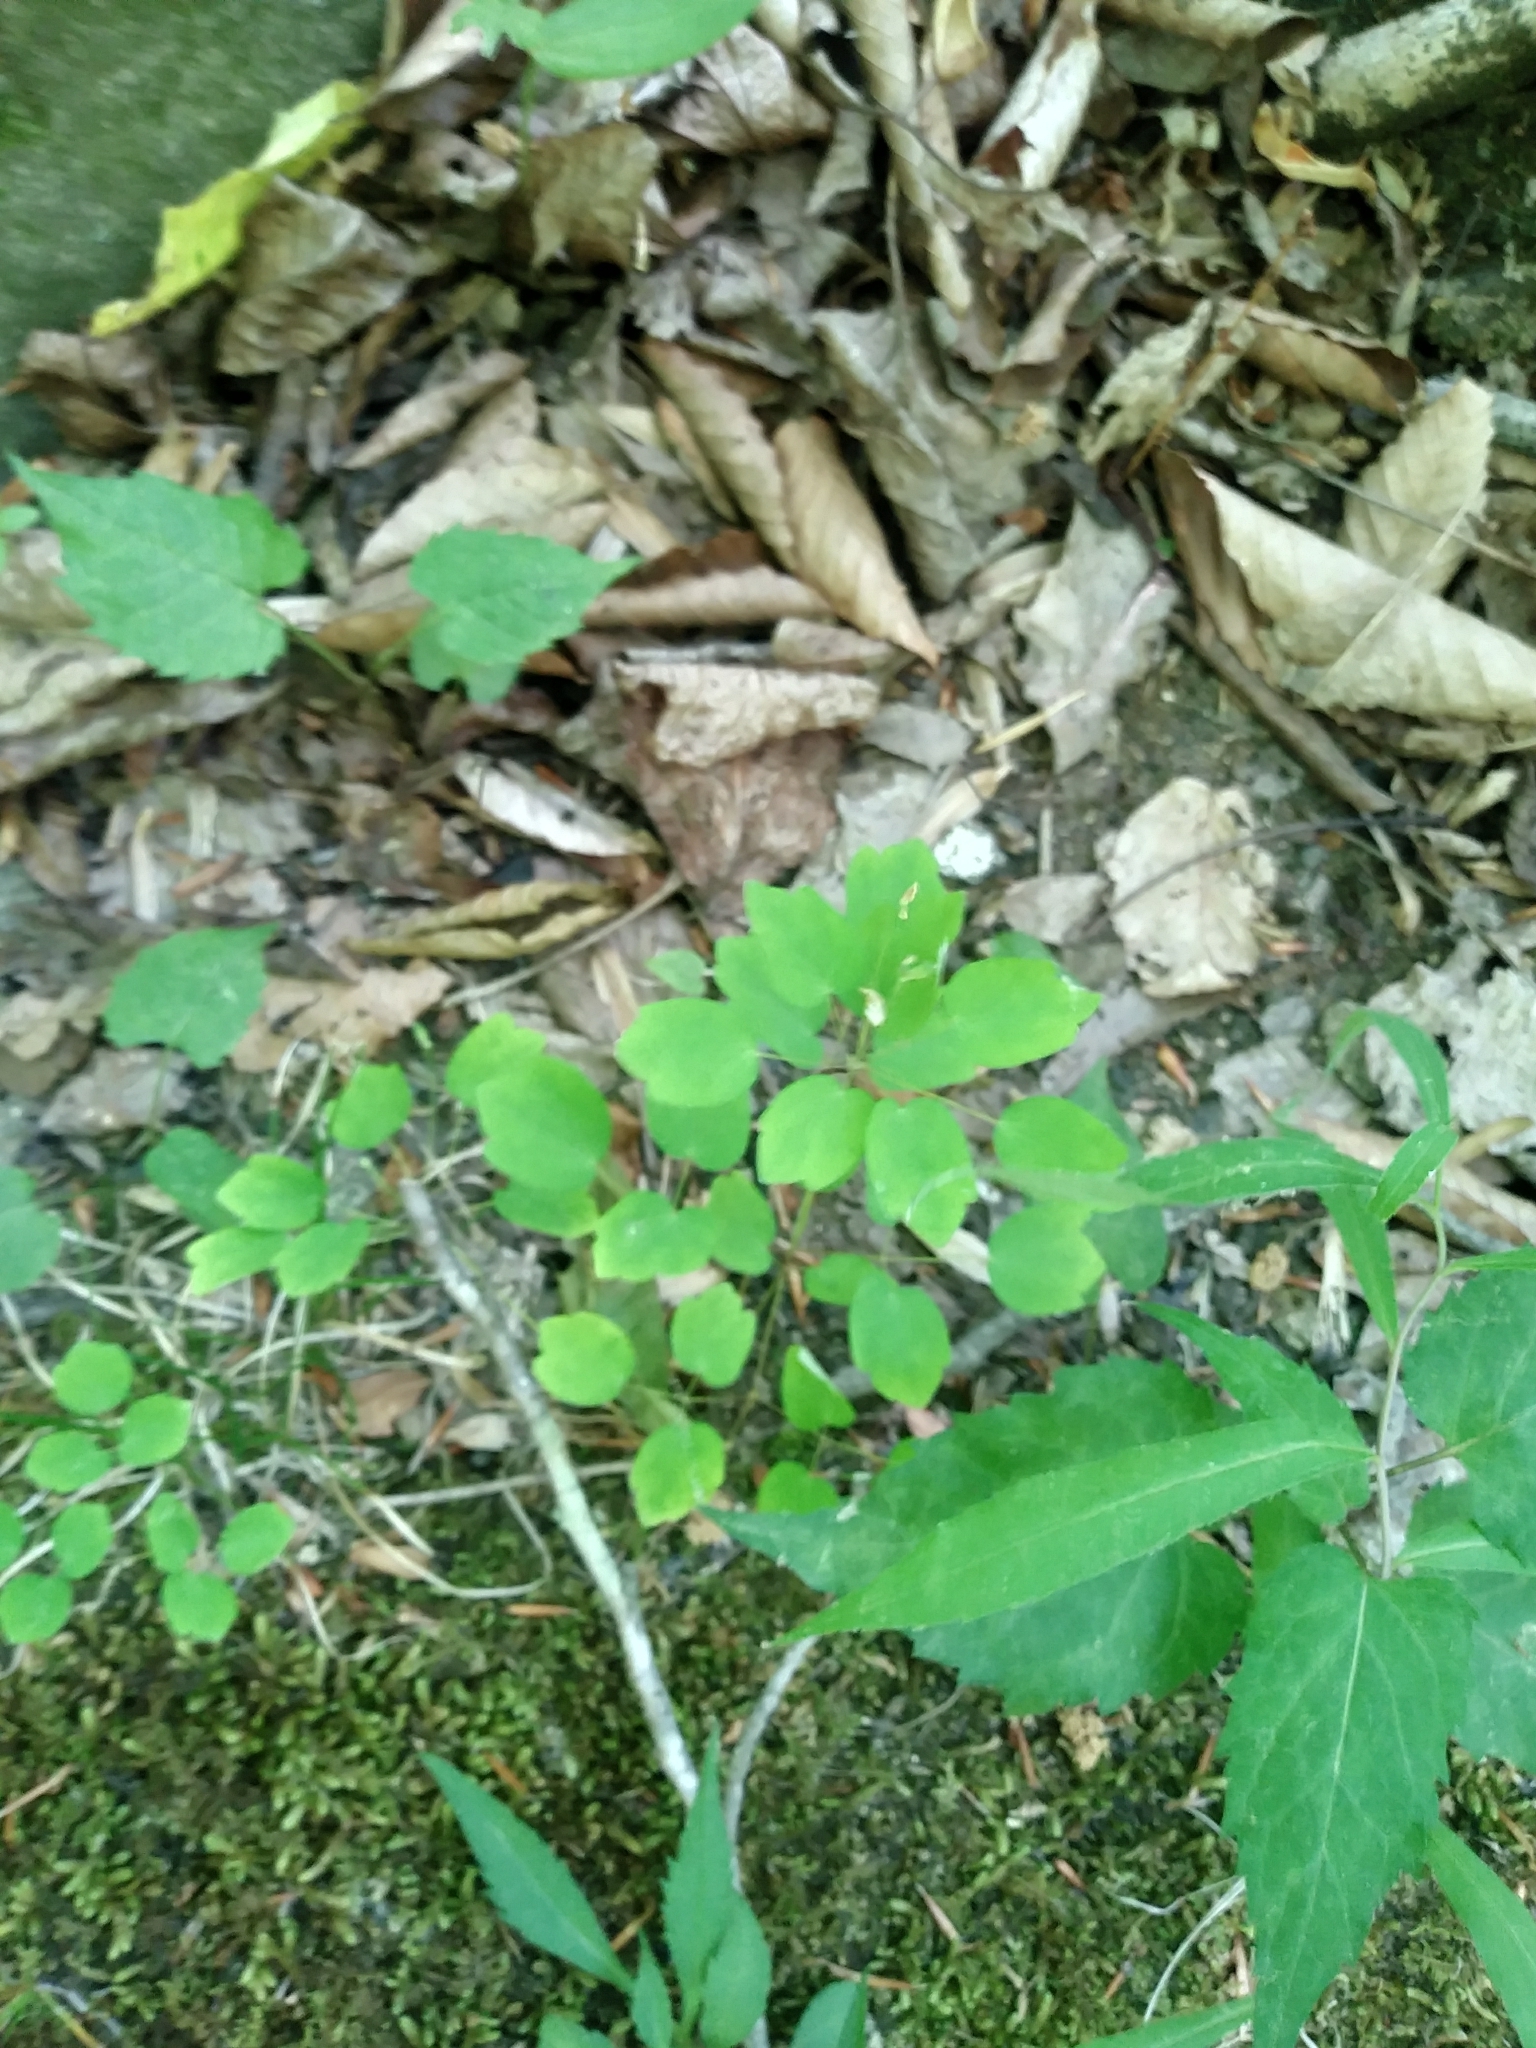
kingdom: Plantae
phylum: Tracheophyta
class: Magnoliopsida
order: Ranunculales
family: Ranunculaceae
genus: Thalictrum
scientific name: Thalictrum thalictroides
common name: Rue-anemone
